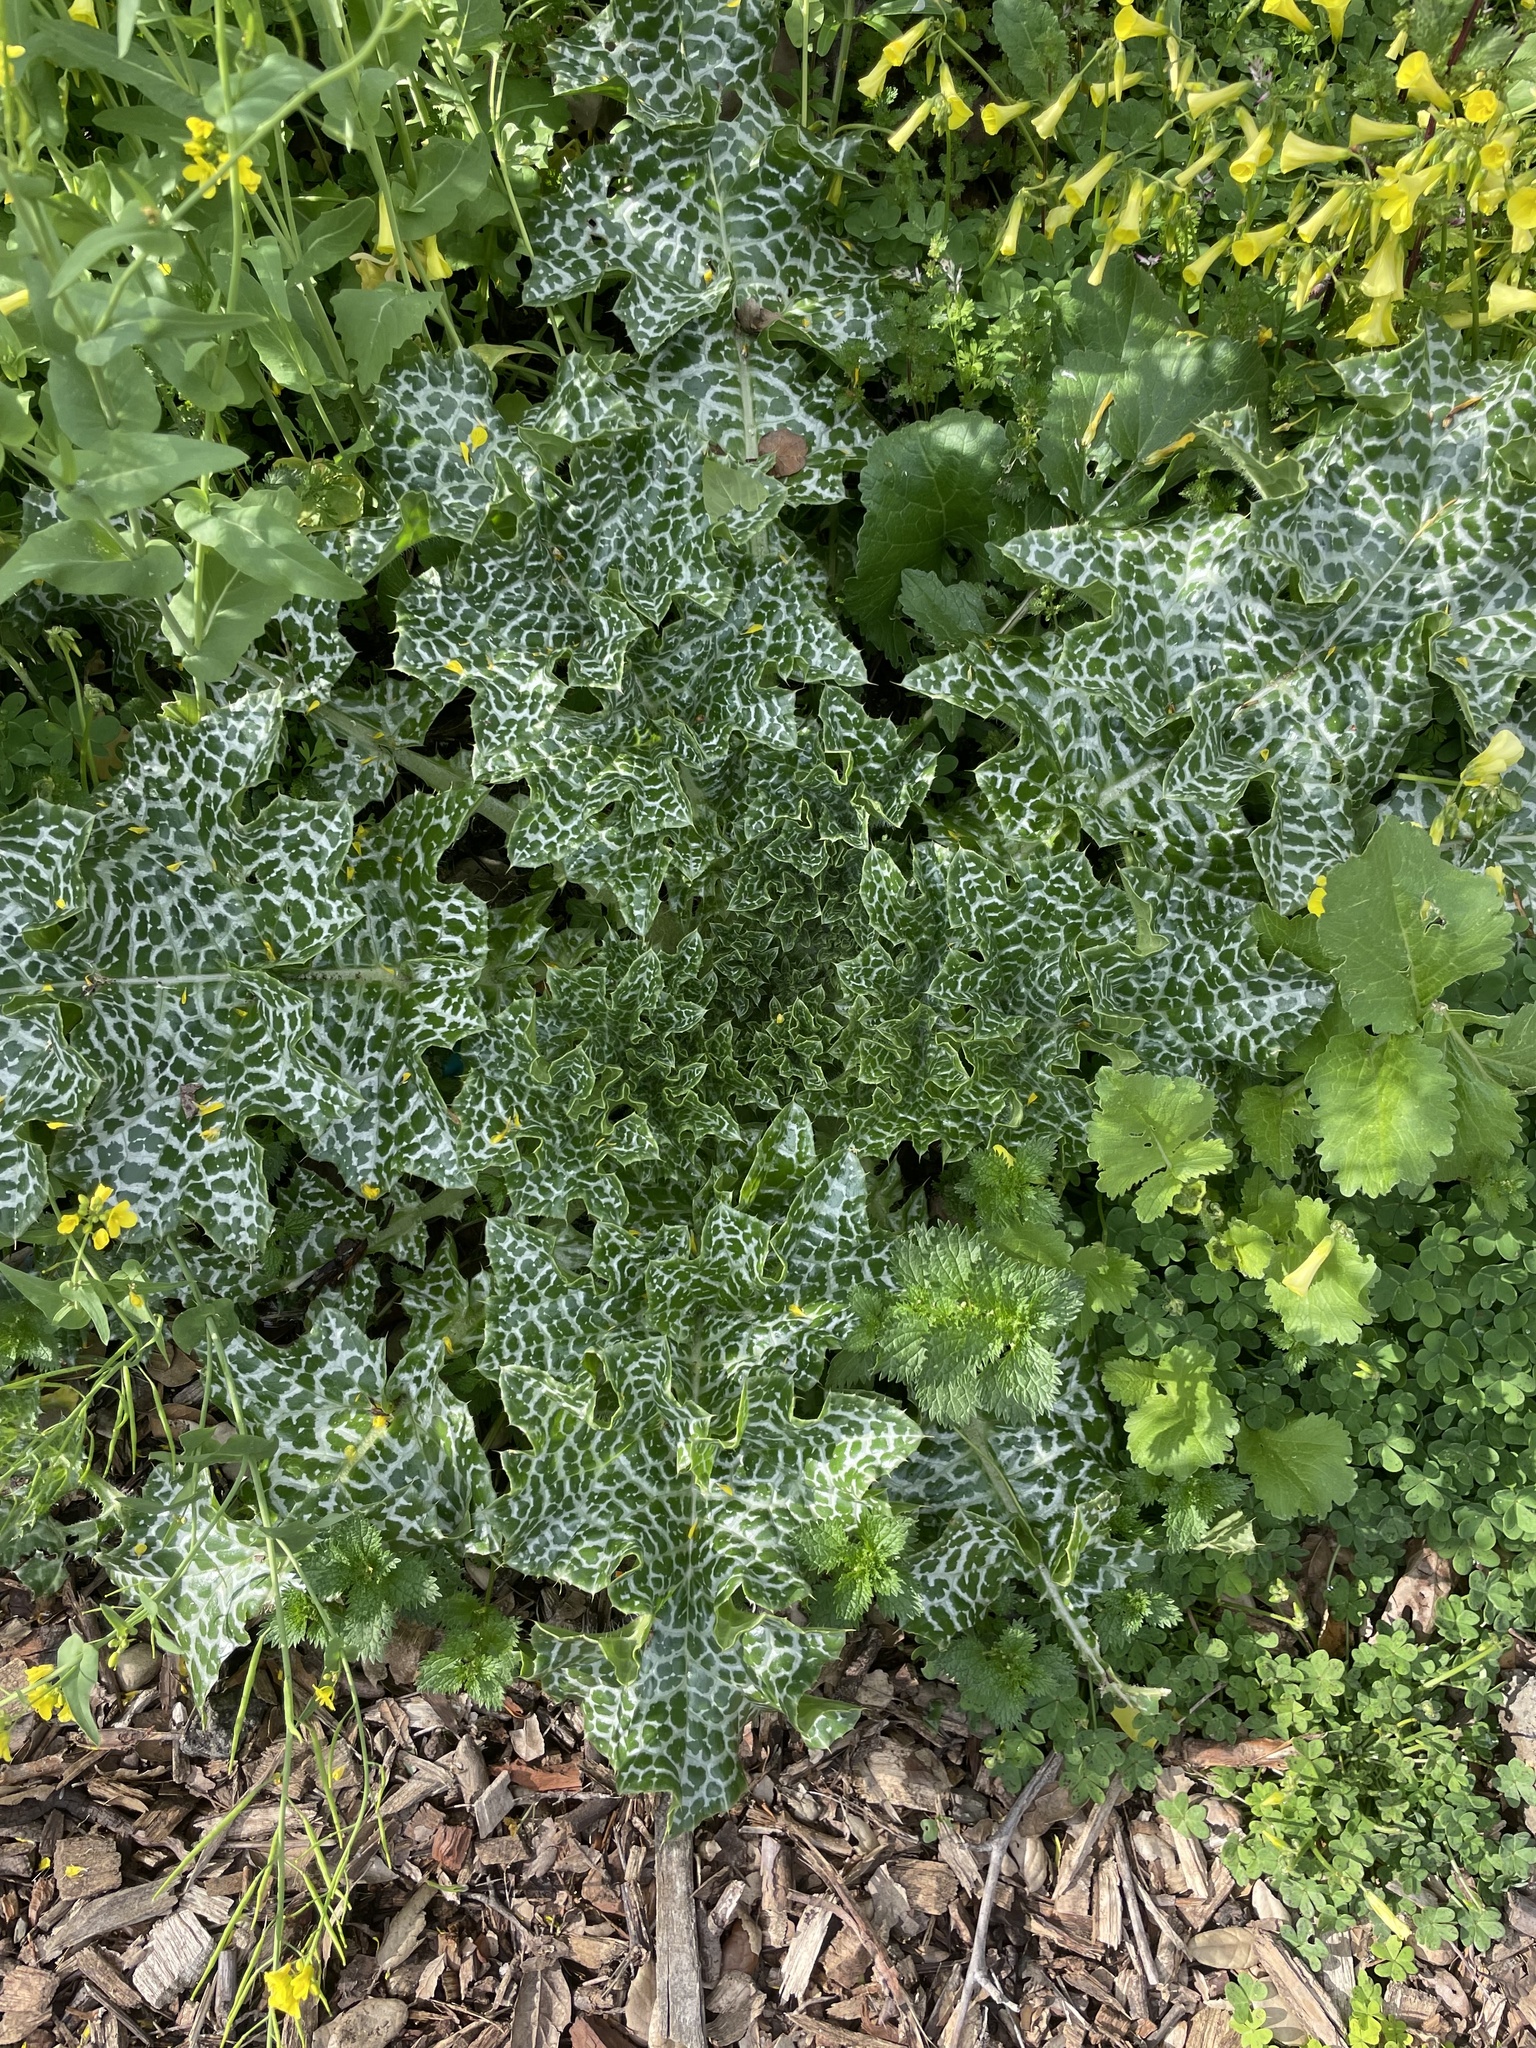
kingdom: Plantae
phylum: Tracheophyta
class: Magnoliopsida
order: Asterales
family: Asteraceae
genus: Silybum
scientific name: Silybum marianum
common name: Milk thistle
